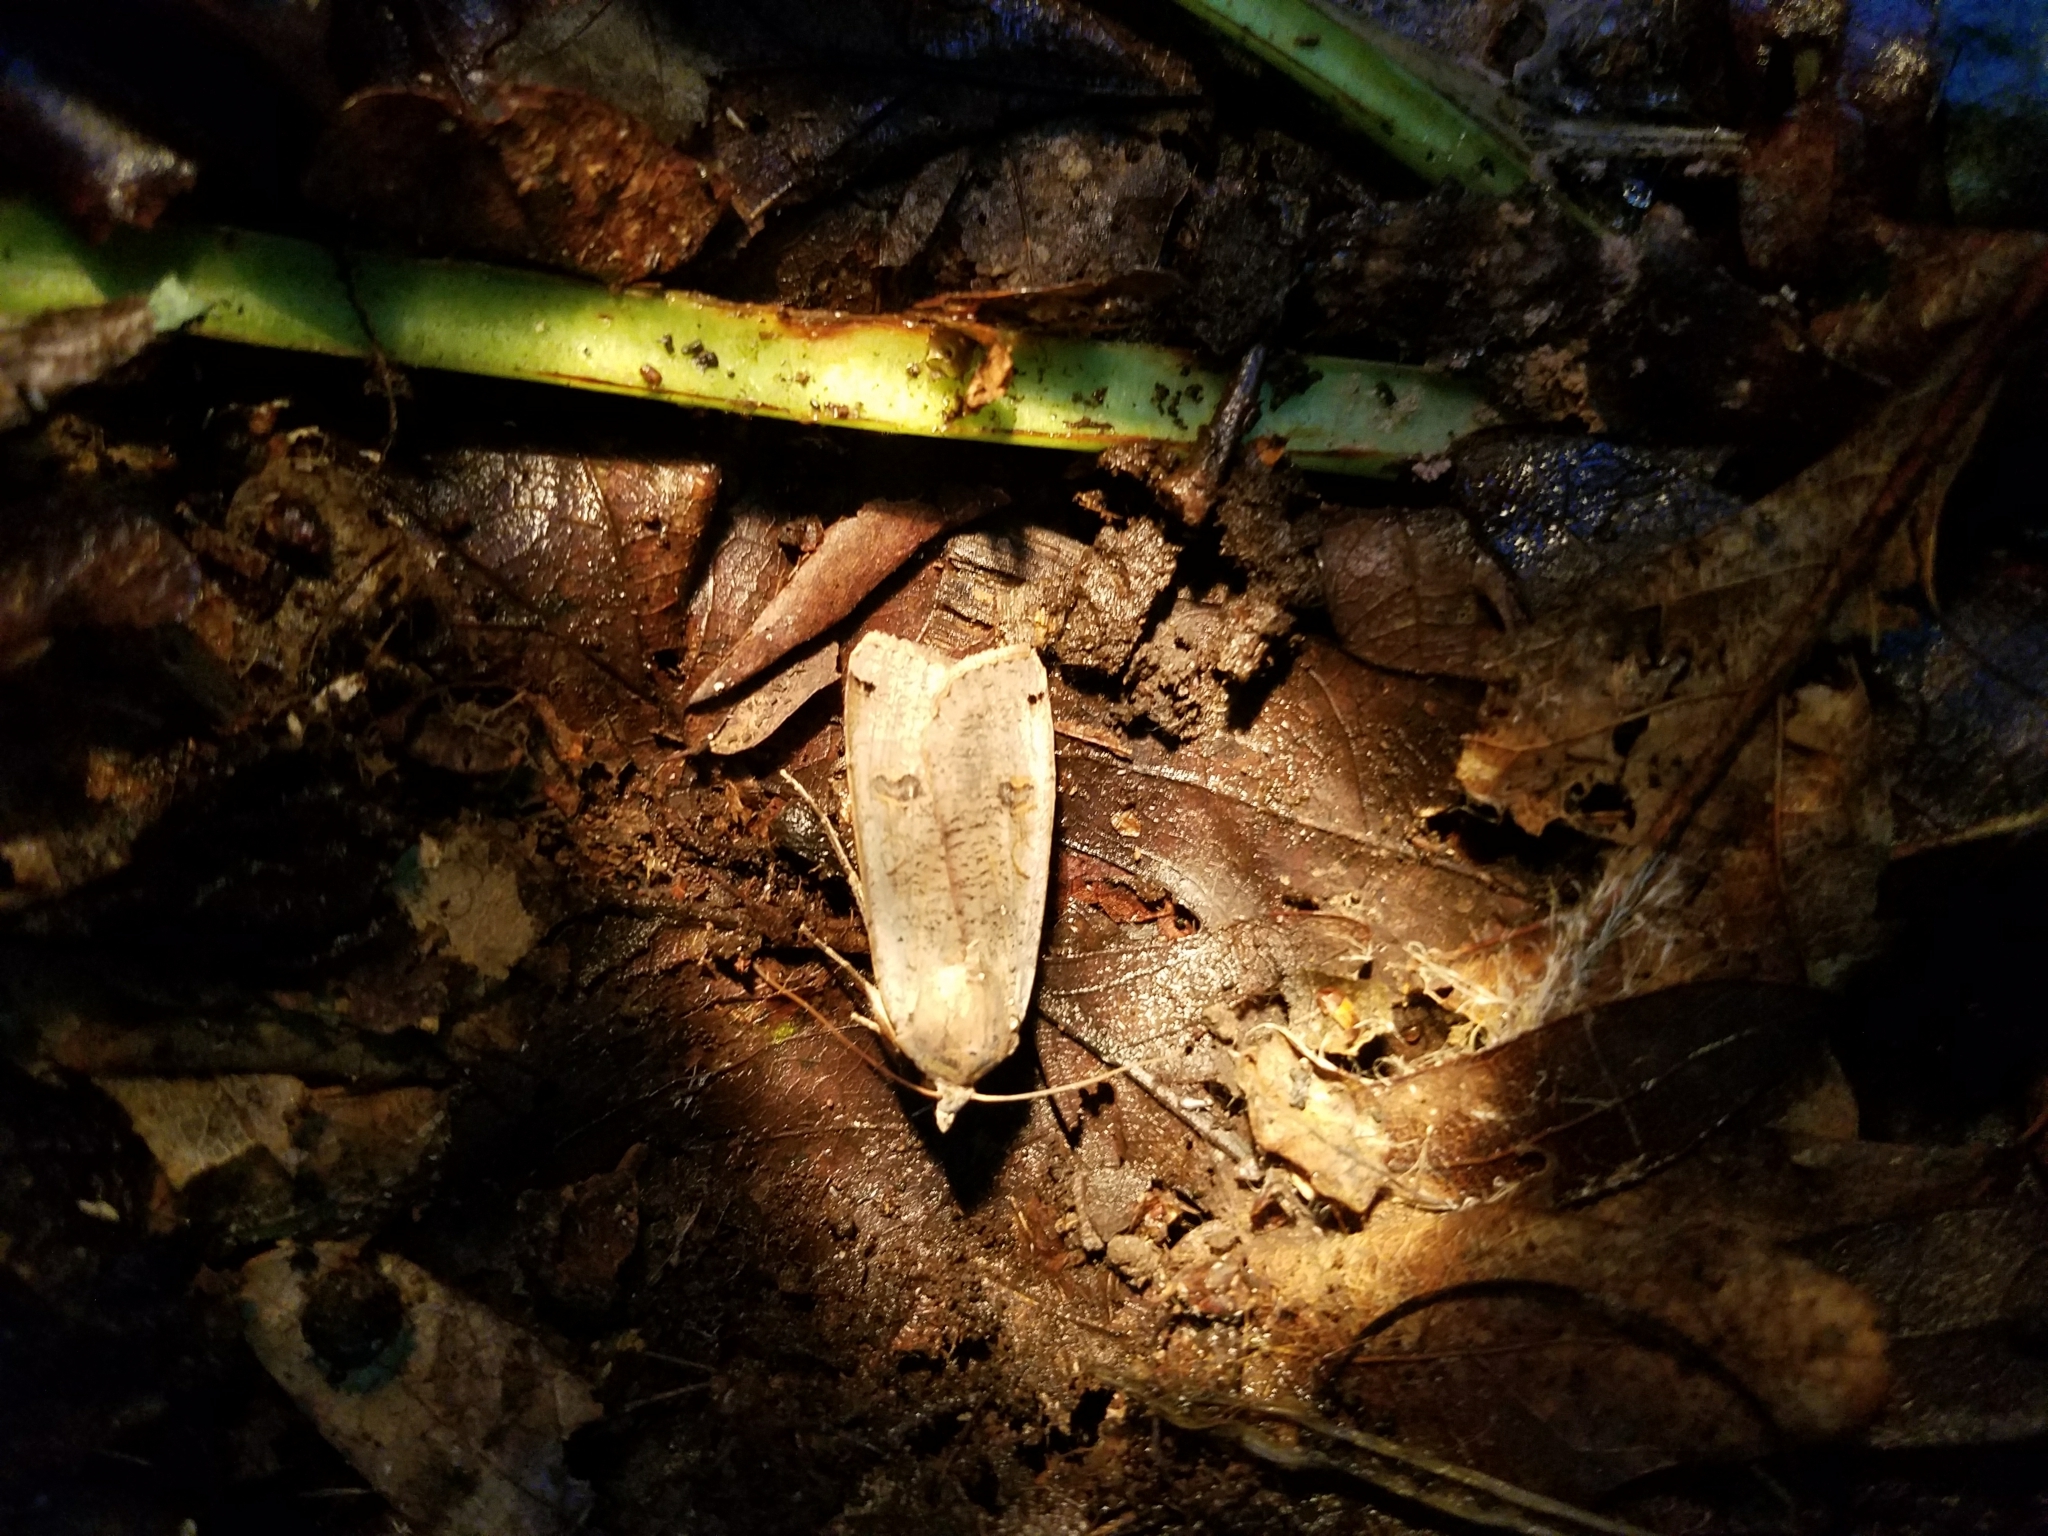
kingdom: Animalia
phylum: Arthropoda
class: Insecta
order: Lepidoptera
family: Noctuidae
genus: Noctua
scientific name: Noctua pronuba
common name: Large yellow underwing
